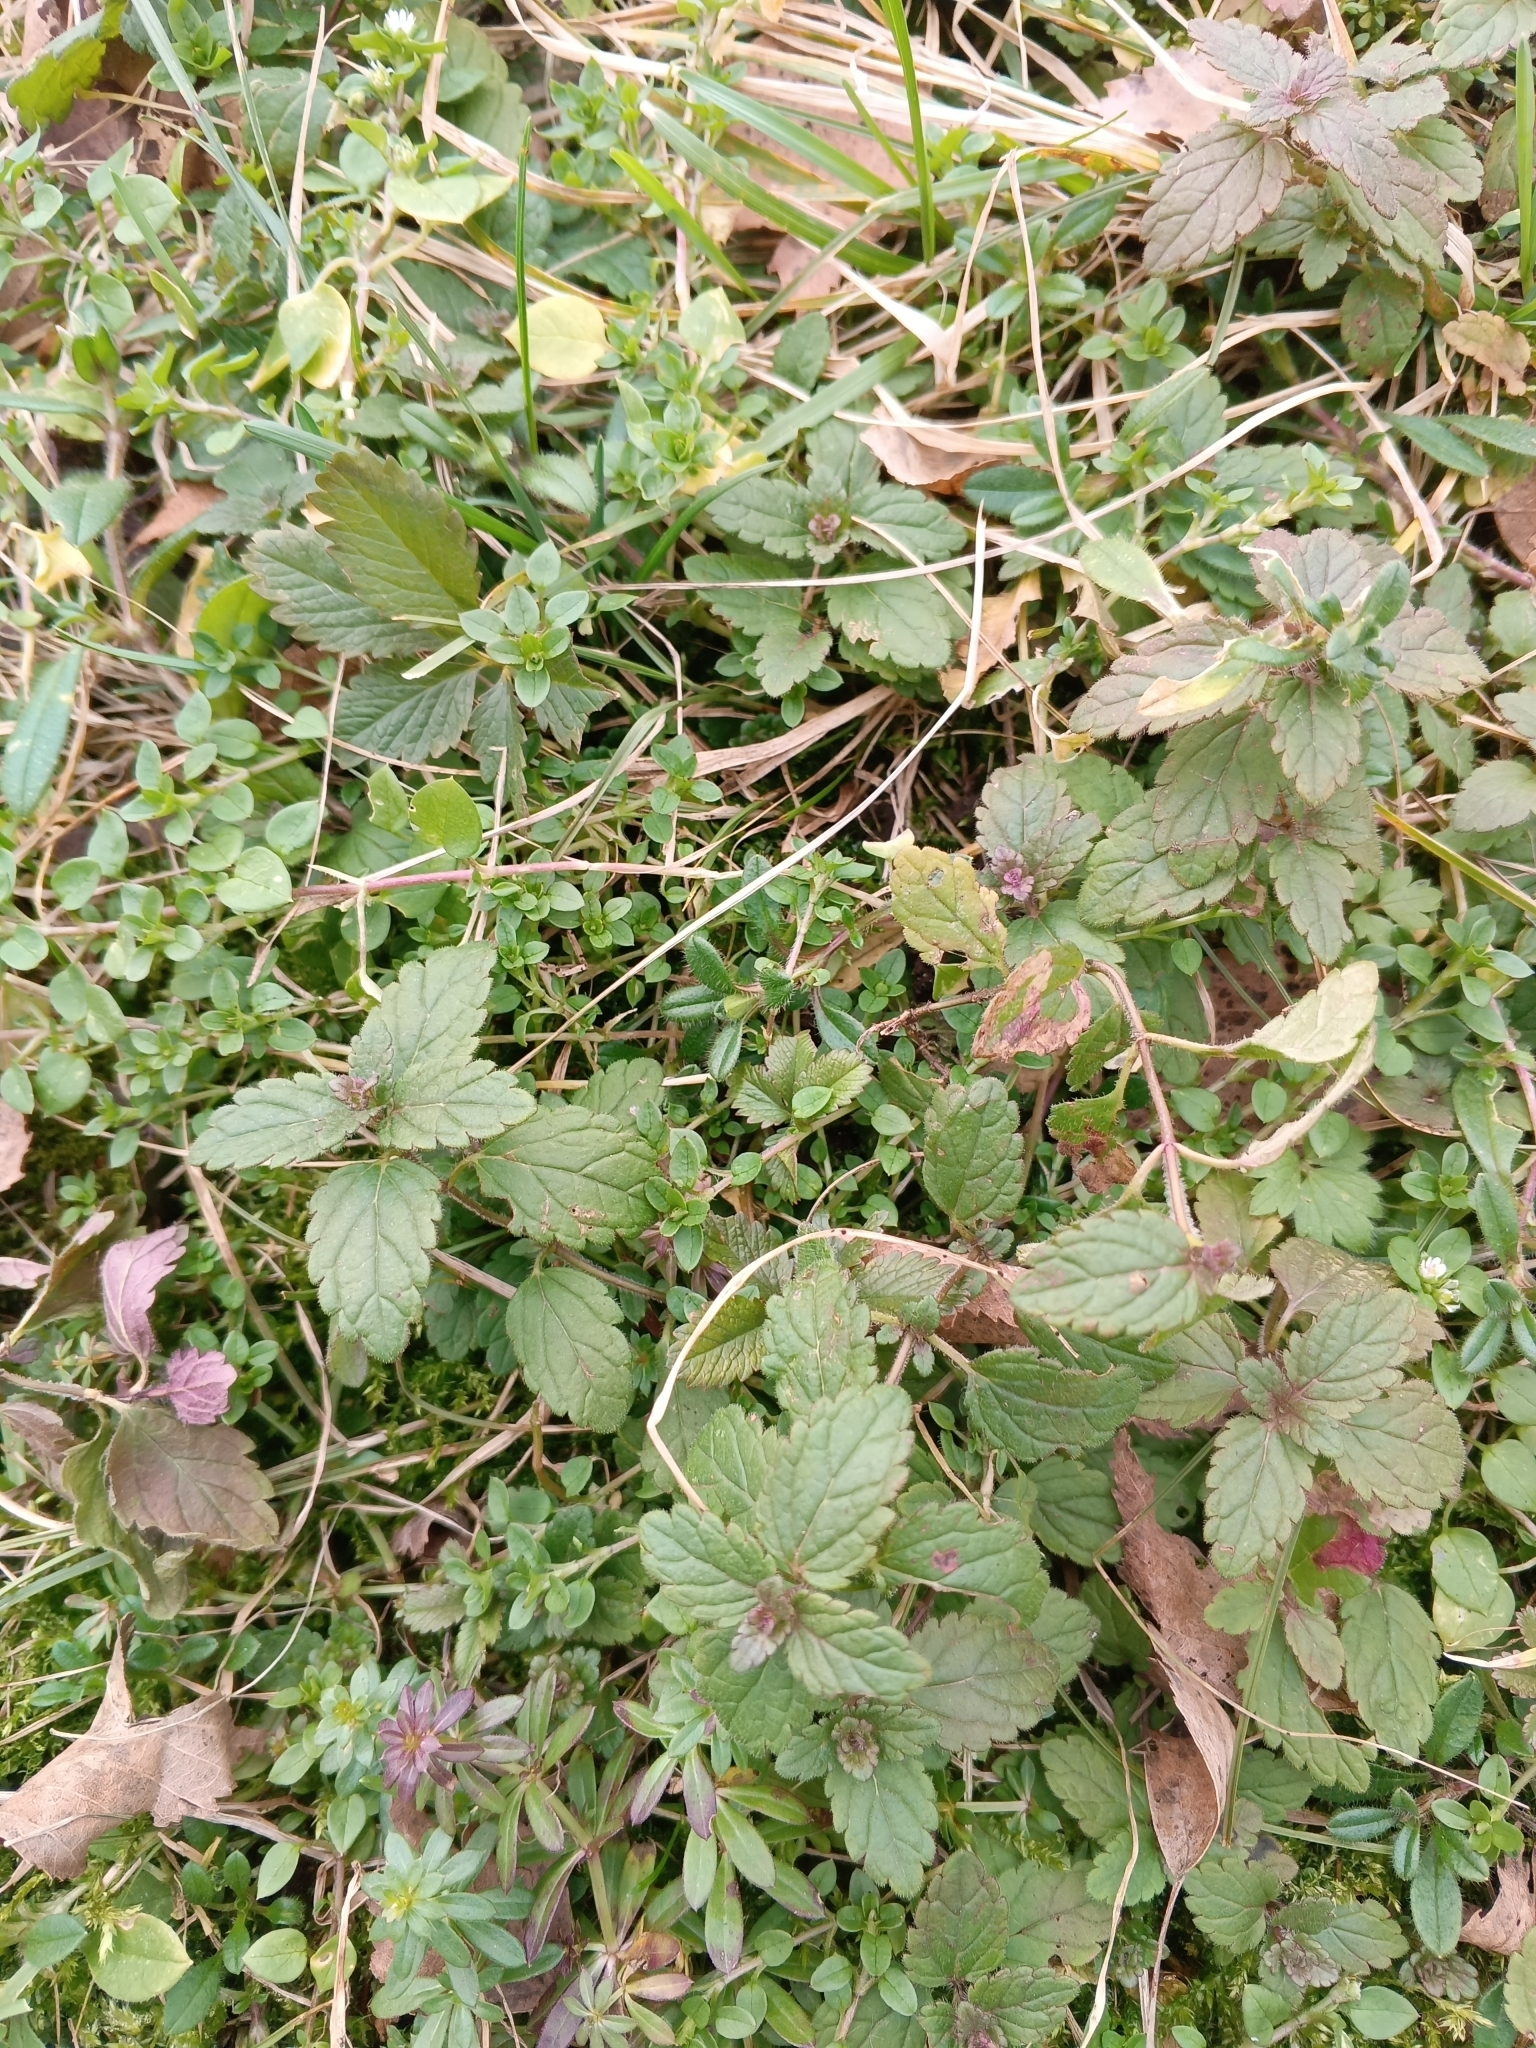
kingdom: Plantae
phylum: Tracheophyta
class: Magnoliopsida
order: Lamiales
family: Plantaginaceae
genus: Veronica
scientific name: Veronica chamaedrys
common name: Germander speedwell
